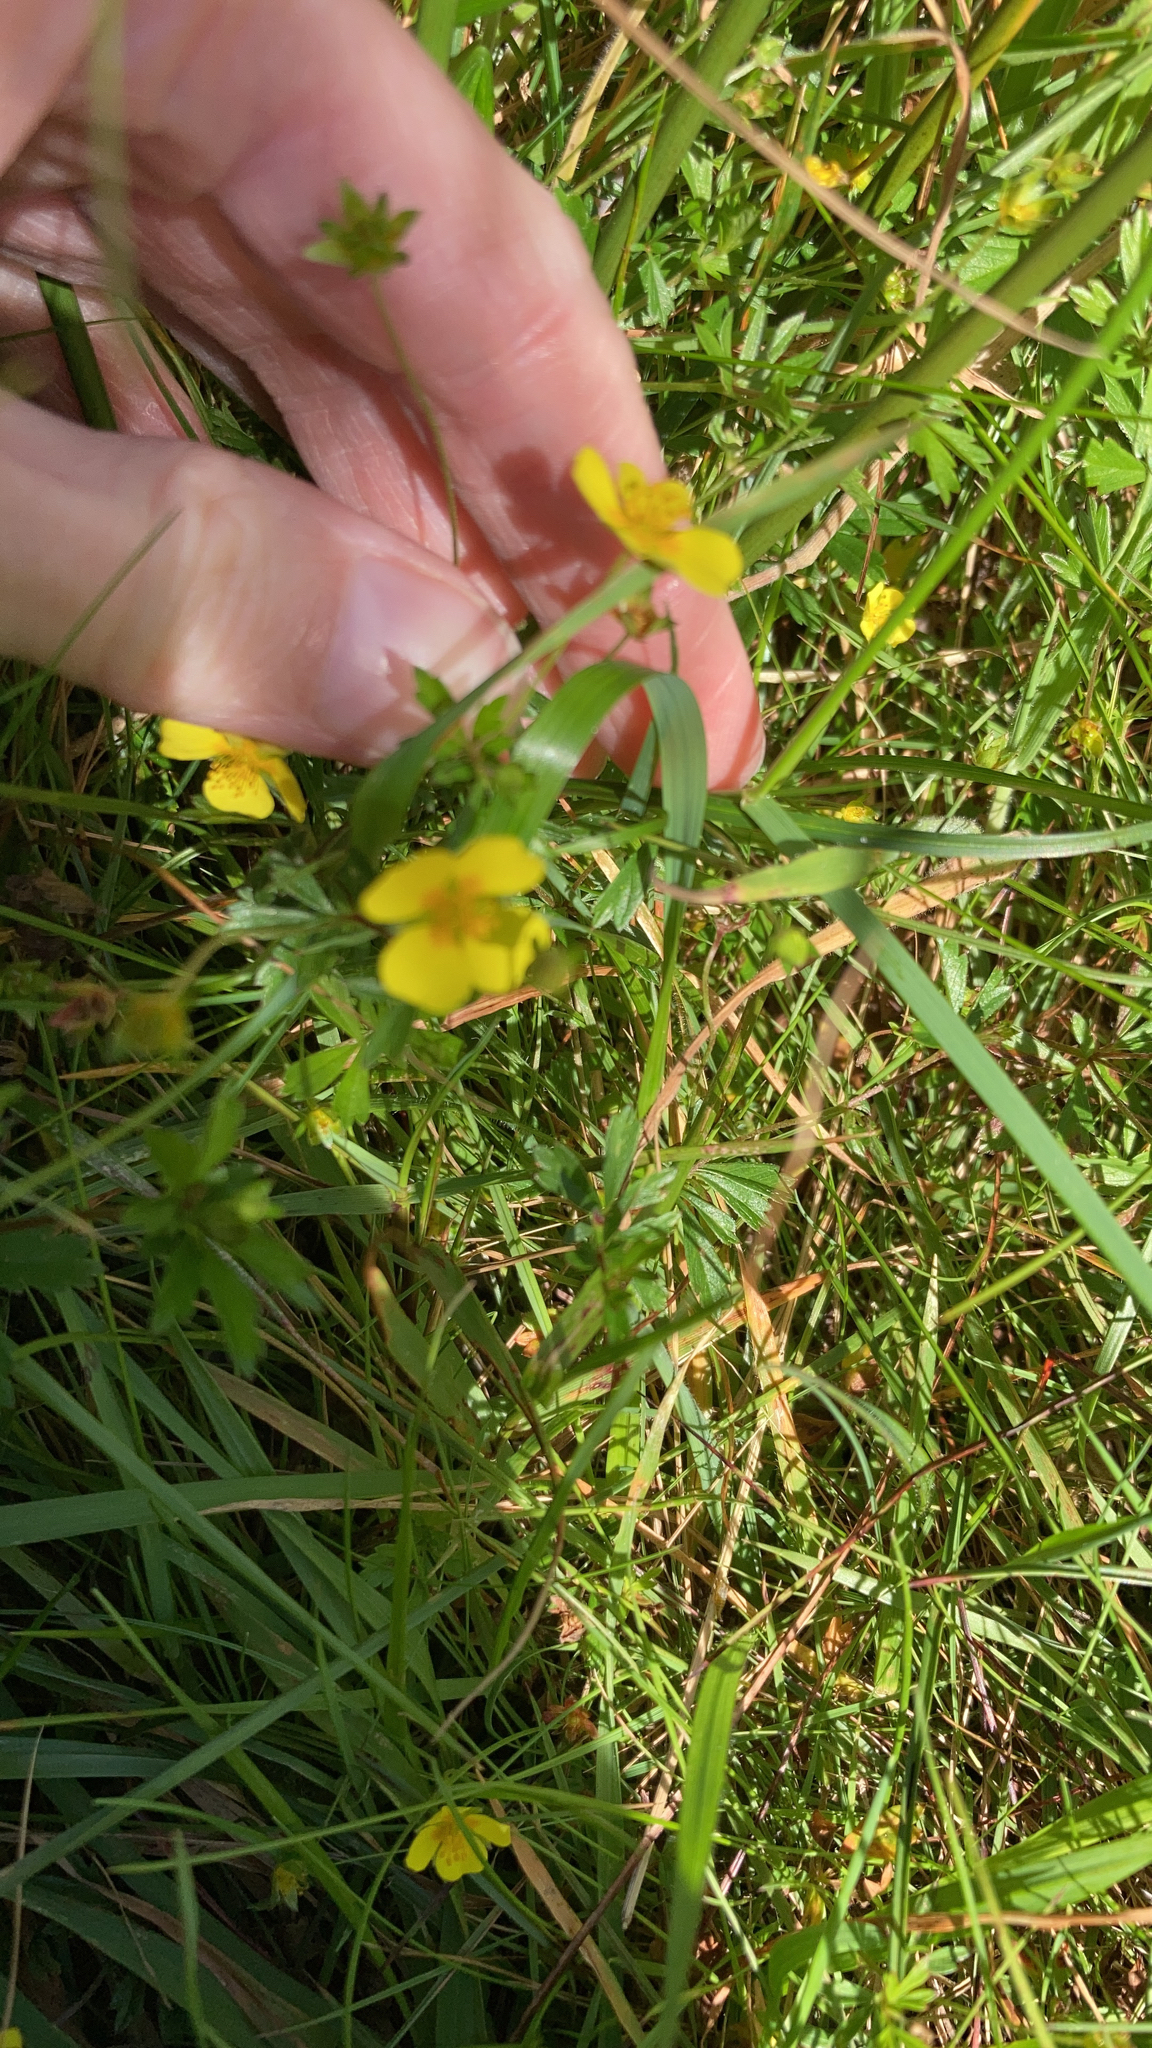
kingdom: Plantae
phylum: Tracheophyta
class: Magnoliopsida
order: Rosales
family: Rosaceae
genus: Potentilla
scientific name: Potentilla erecta
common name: Tormentil
